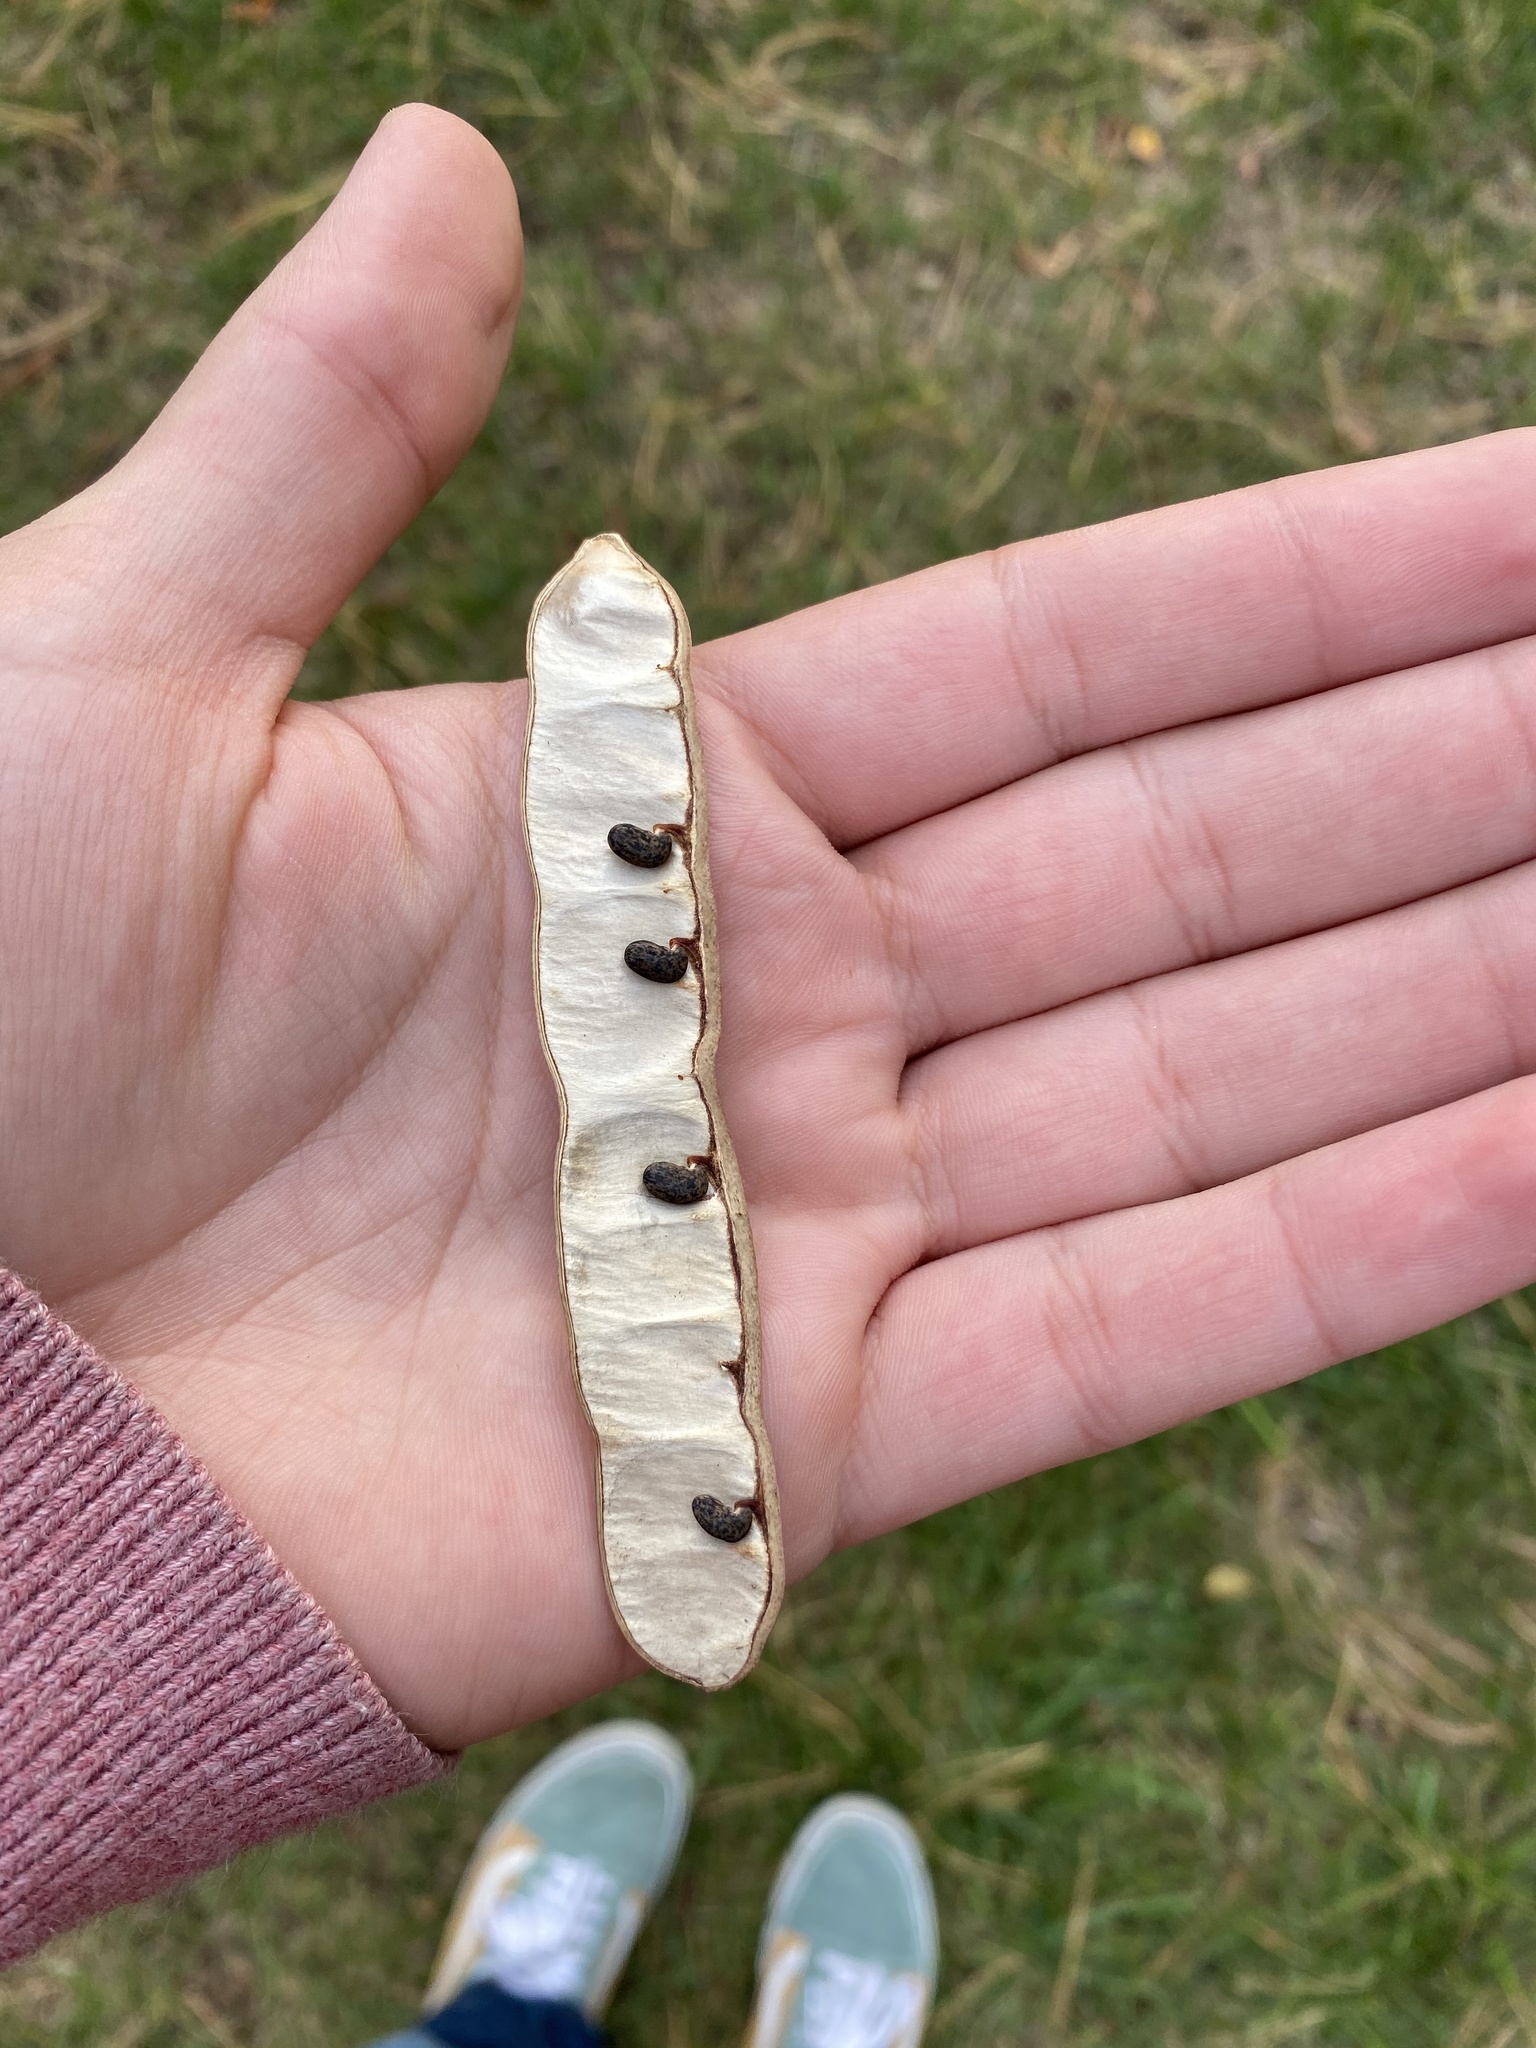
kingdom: Plantae
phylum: Tracheophyta
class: Magnoliopsida
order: Fabales
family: Fabaceae
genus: Robinia
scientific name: Robinia pseudoacacia
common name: Black locust
